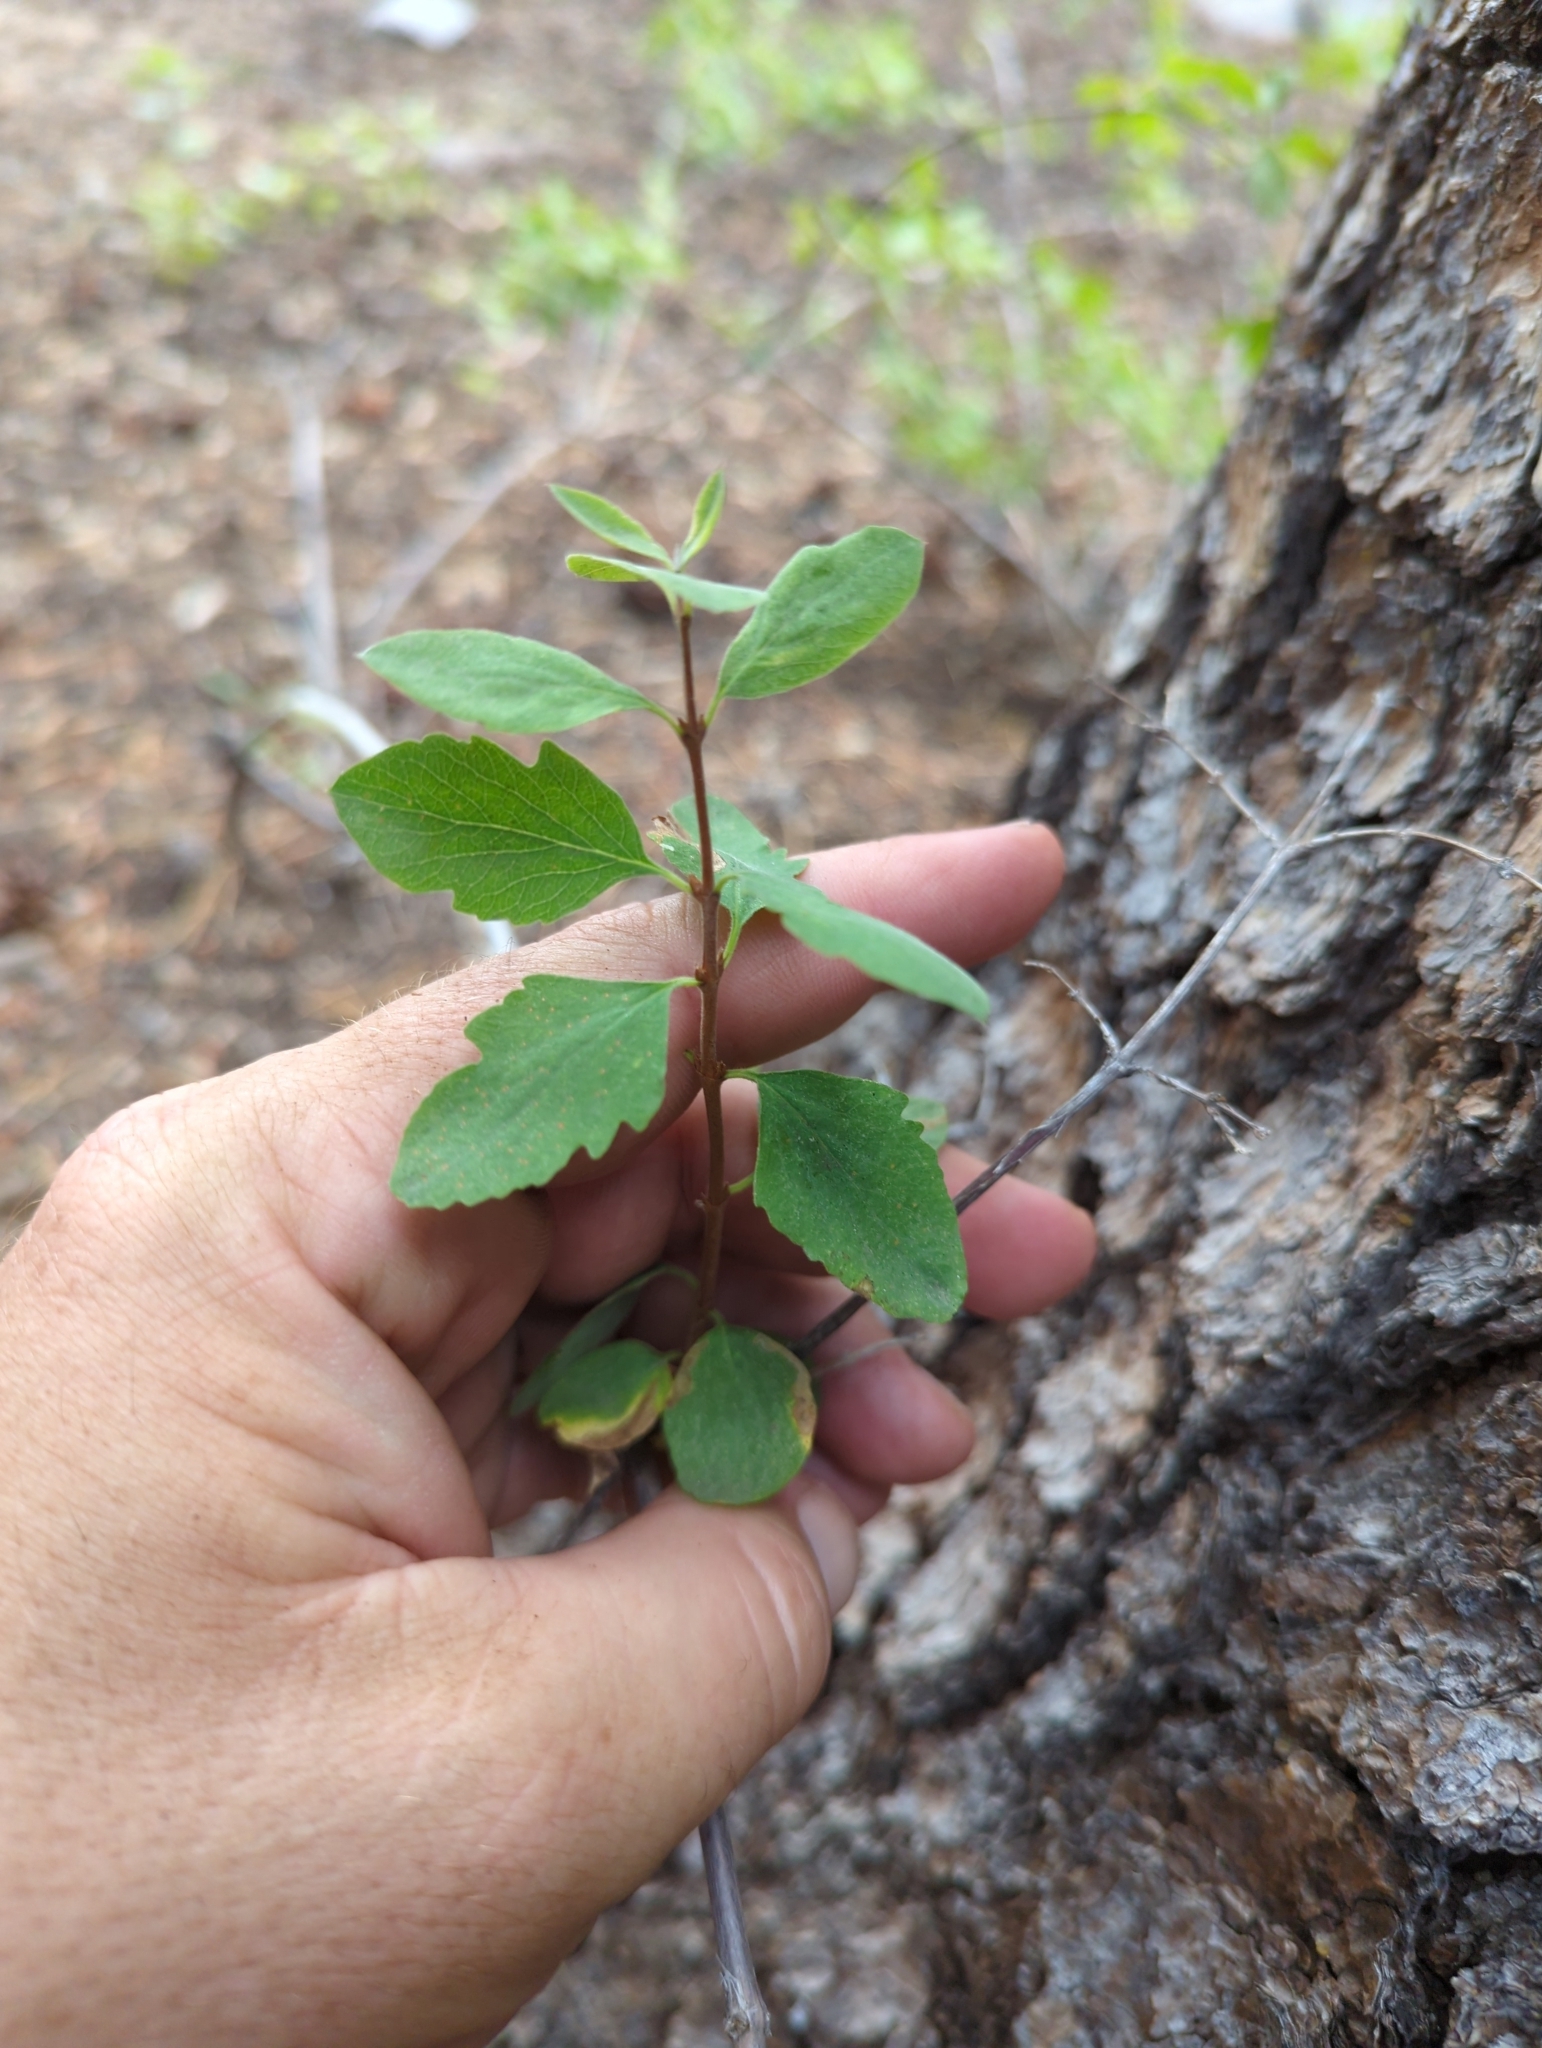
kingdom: Plantae
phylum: Tracheophyta
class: Magnoliopsida
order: Dipsacales
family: Caprifoliaceae
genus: Symphoricarpos
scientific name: Symphoricarpos rotundifolius
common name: Round-leaved snowberry
